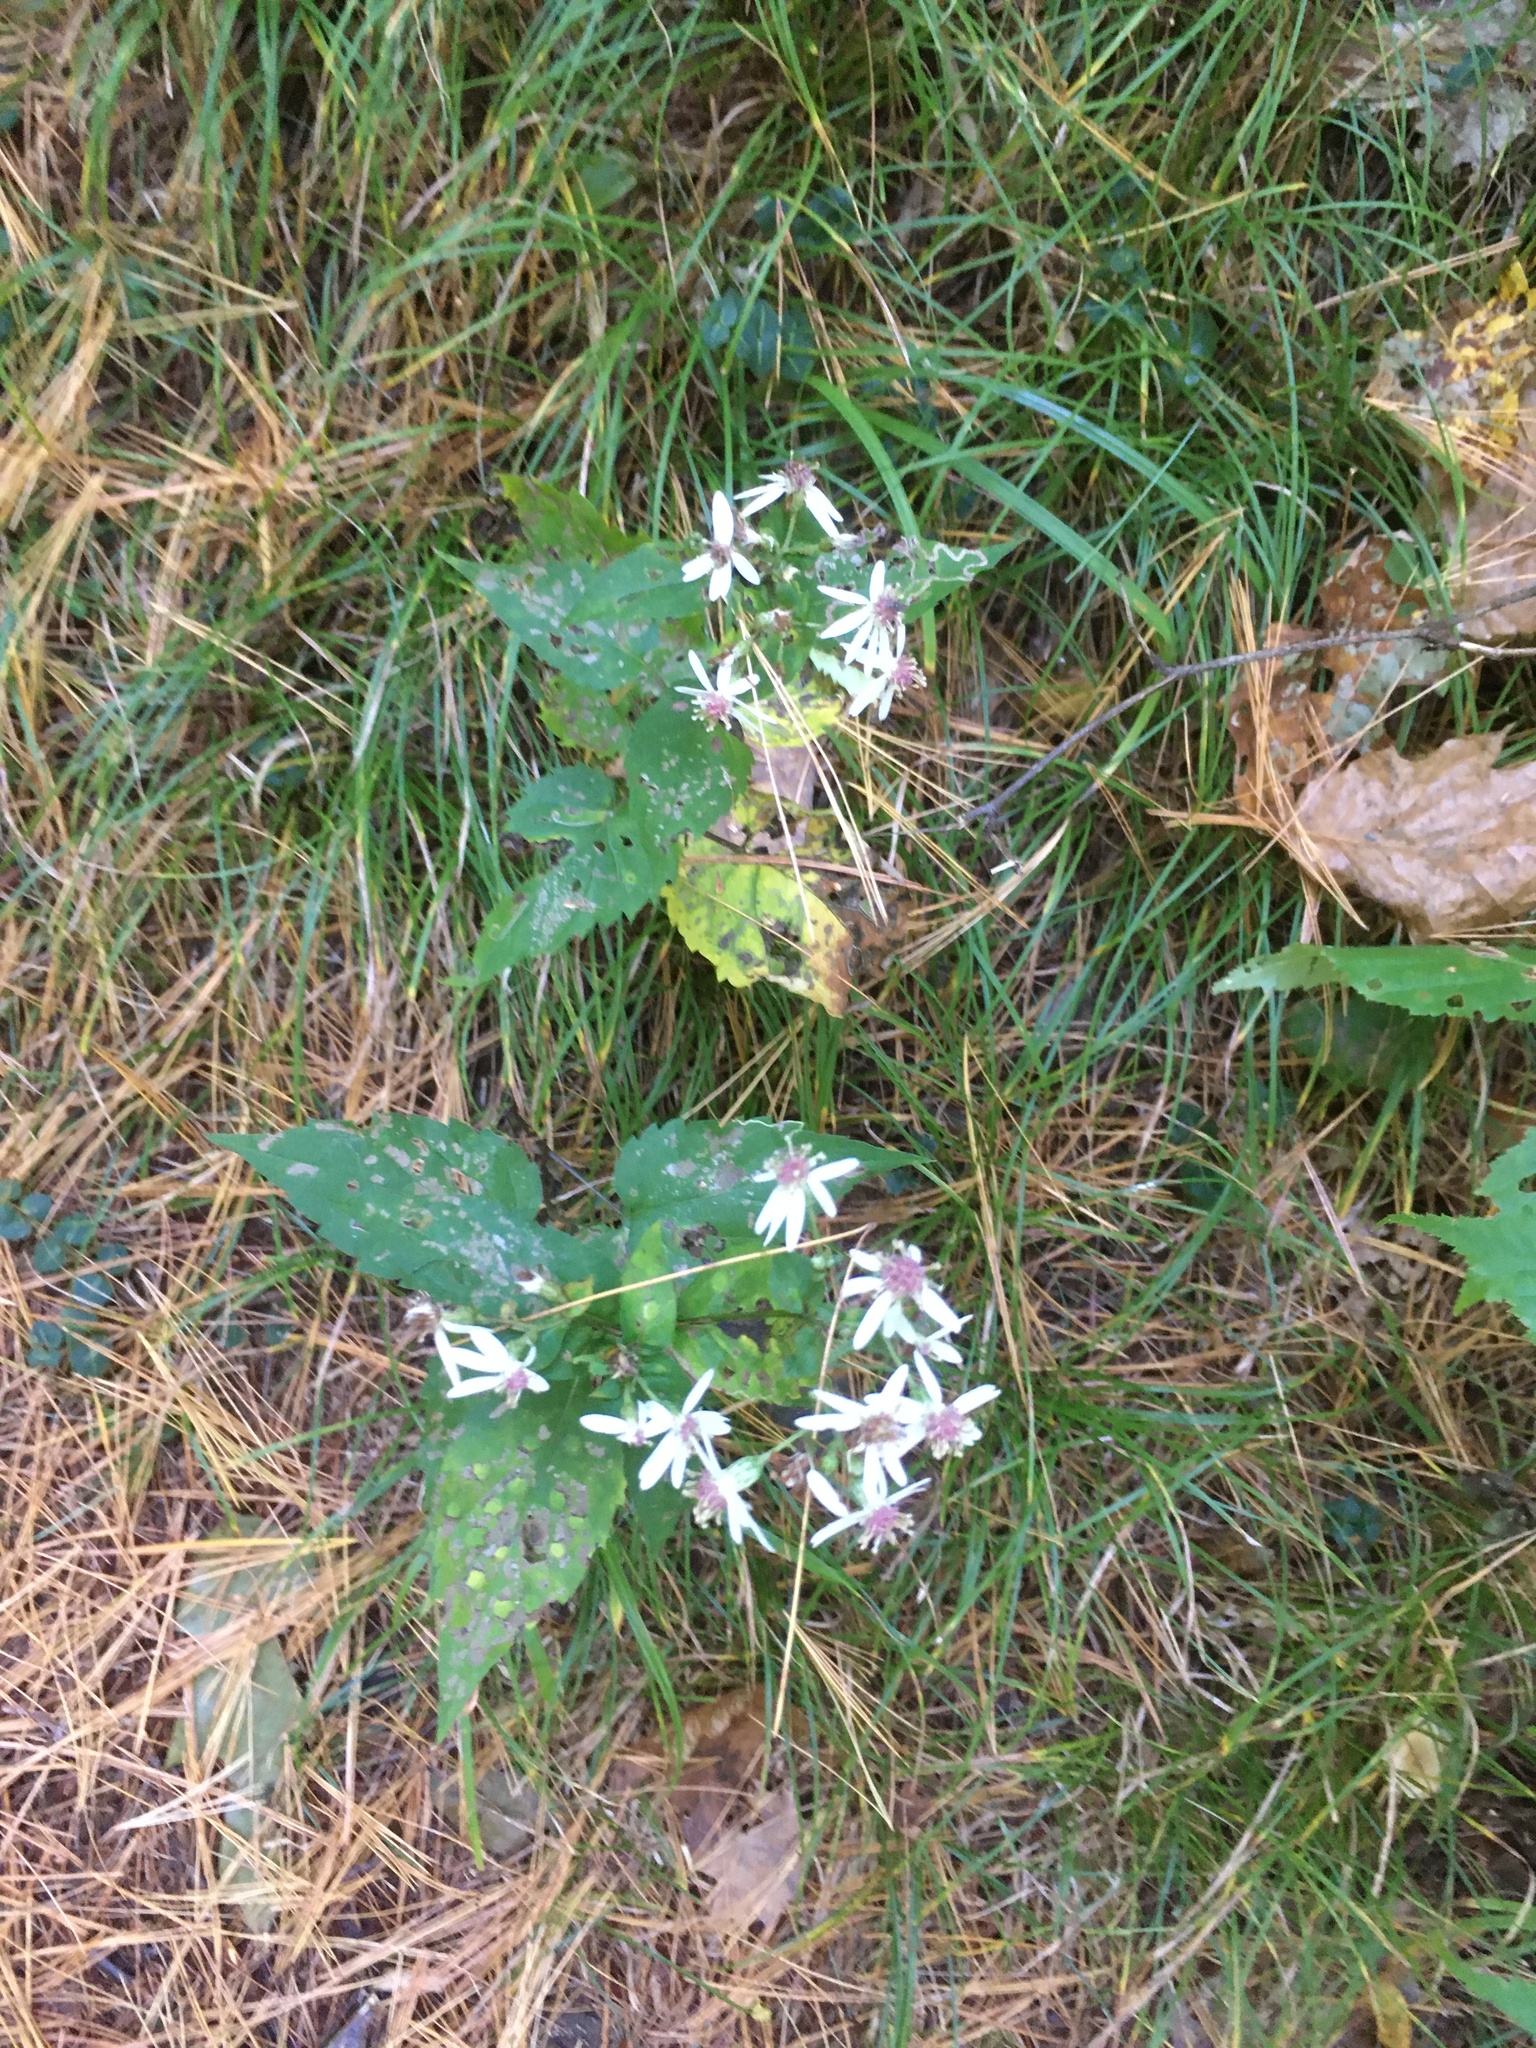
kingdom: Plantae
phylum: Tracheophyta
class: Magnoliopsida
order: Asterales
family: Asteraceae
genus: Eurybia
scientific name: Eurybia divaricata
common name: White wood aster
